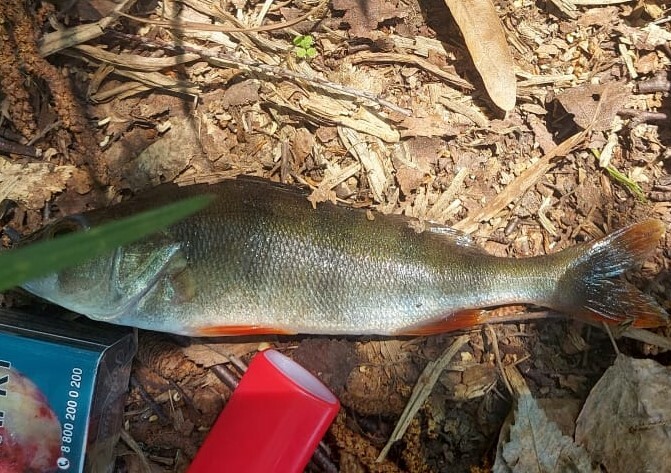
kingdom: Animalia
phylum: Chordata
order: Perciformes
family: Percidae
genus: Perca
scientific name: Perca fluviatilis
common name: Perch
